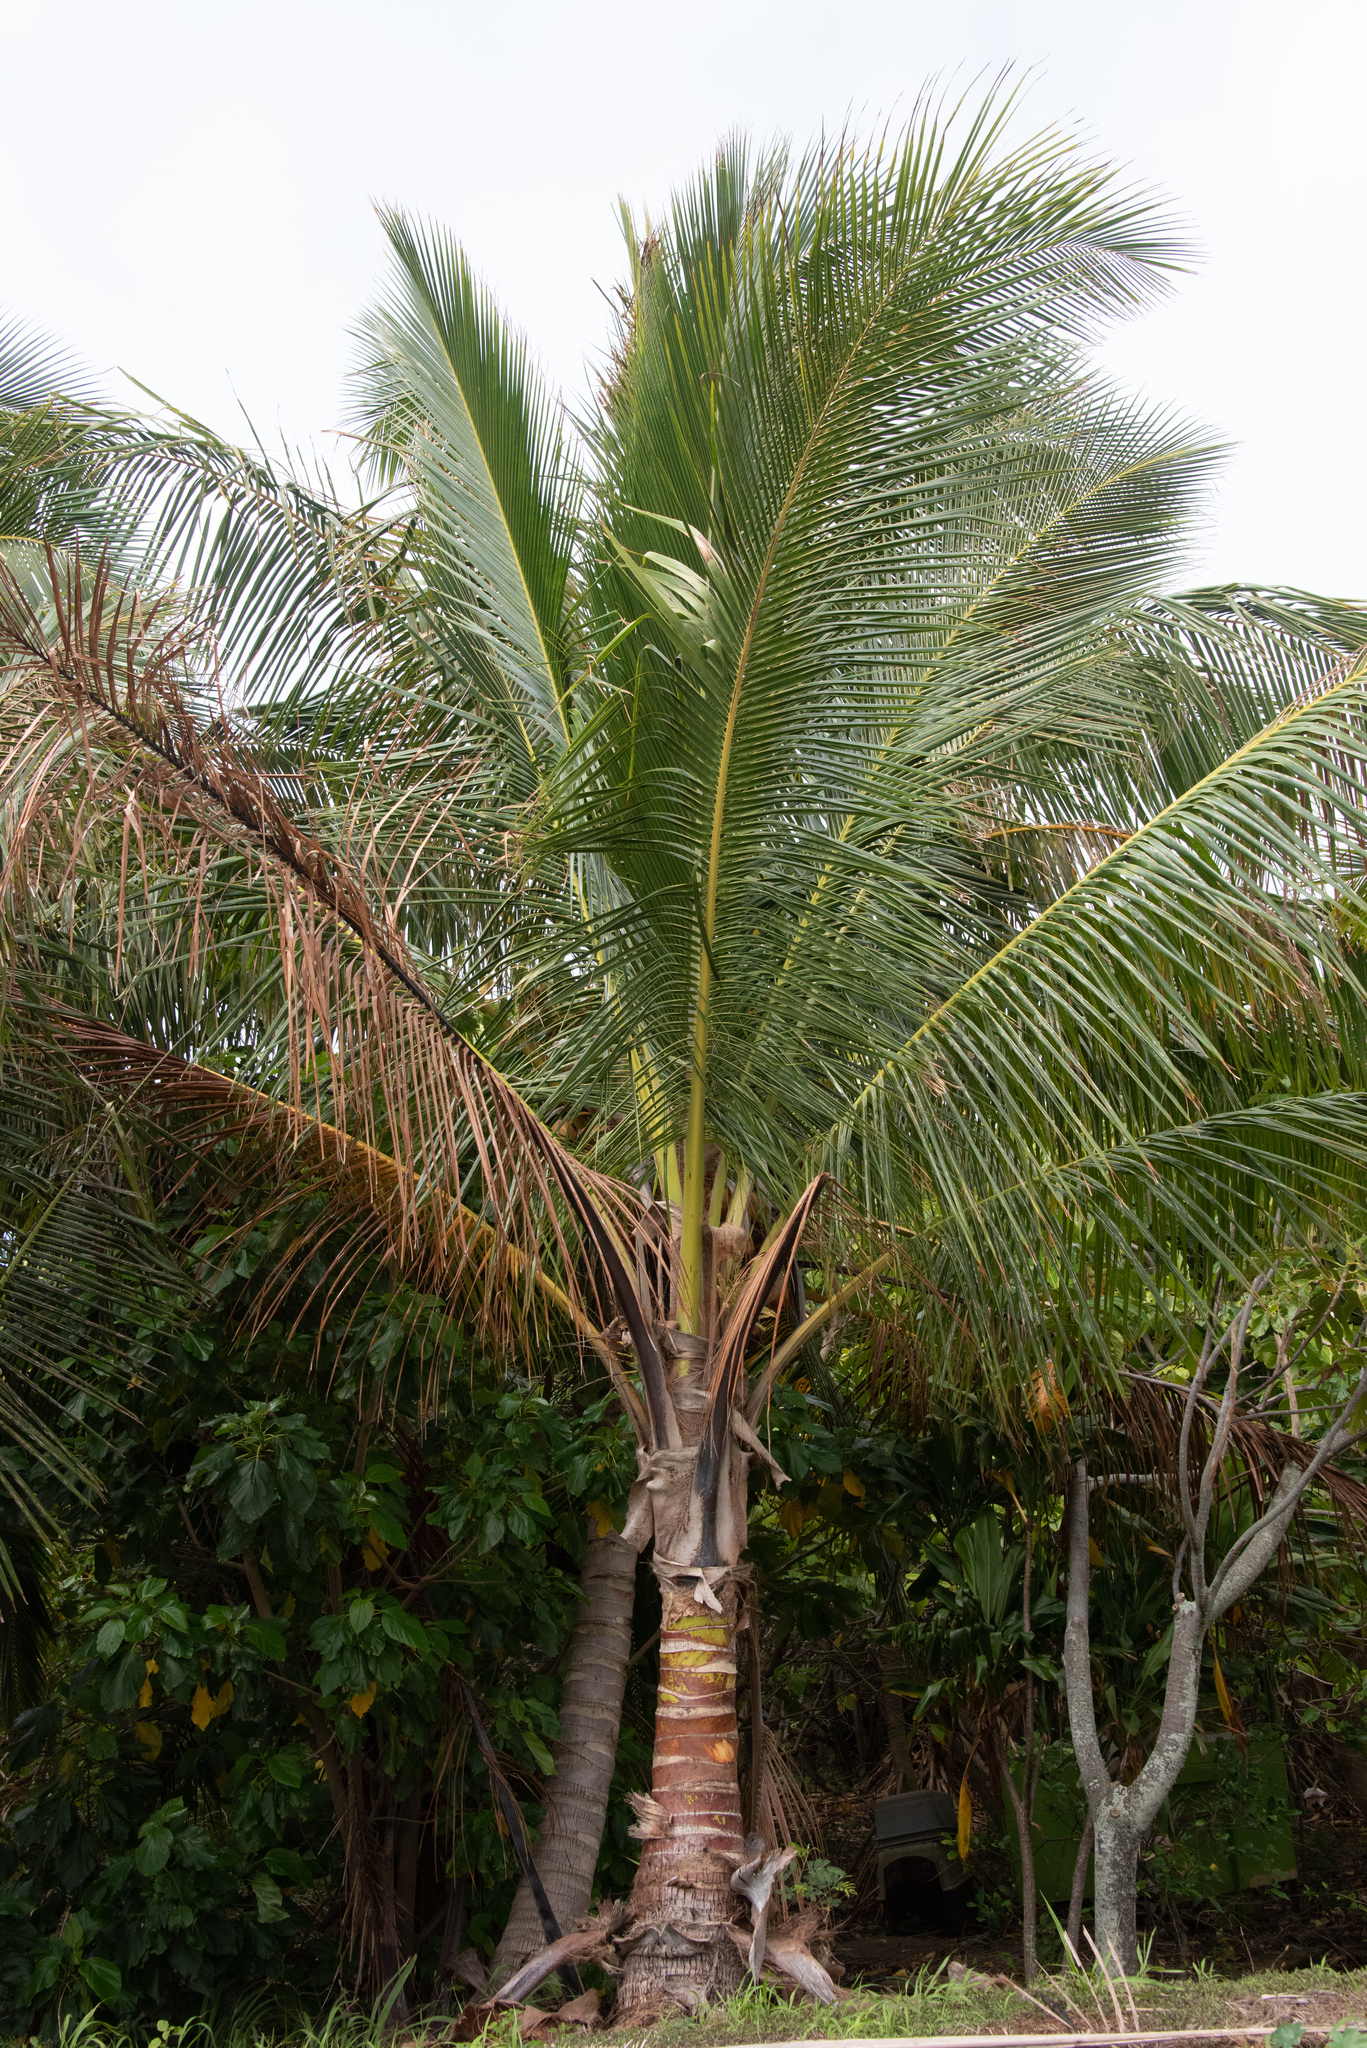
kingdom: Plantae
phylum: Tracheophyta
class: Liliopsida
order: Arecales
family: Arecaceae
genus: Cocos
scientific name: Cocos nucifera
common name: Coconut palm
